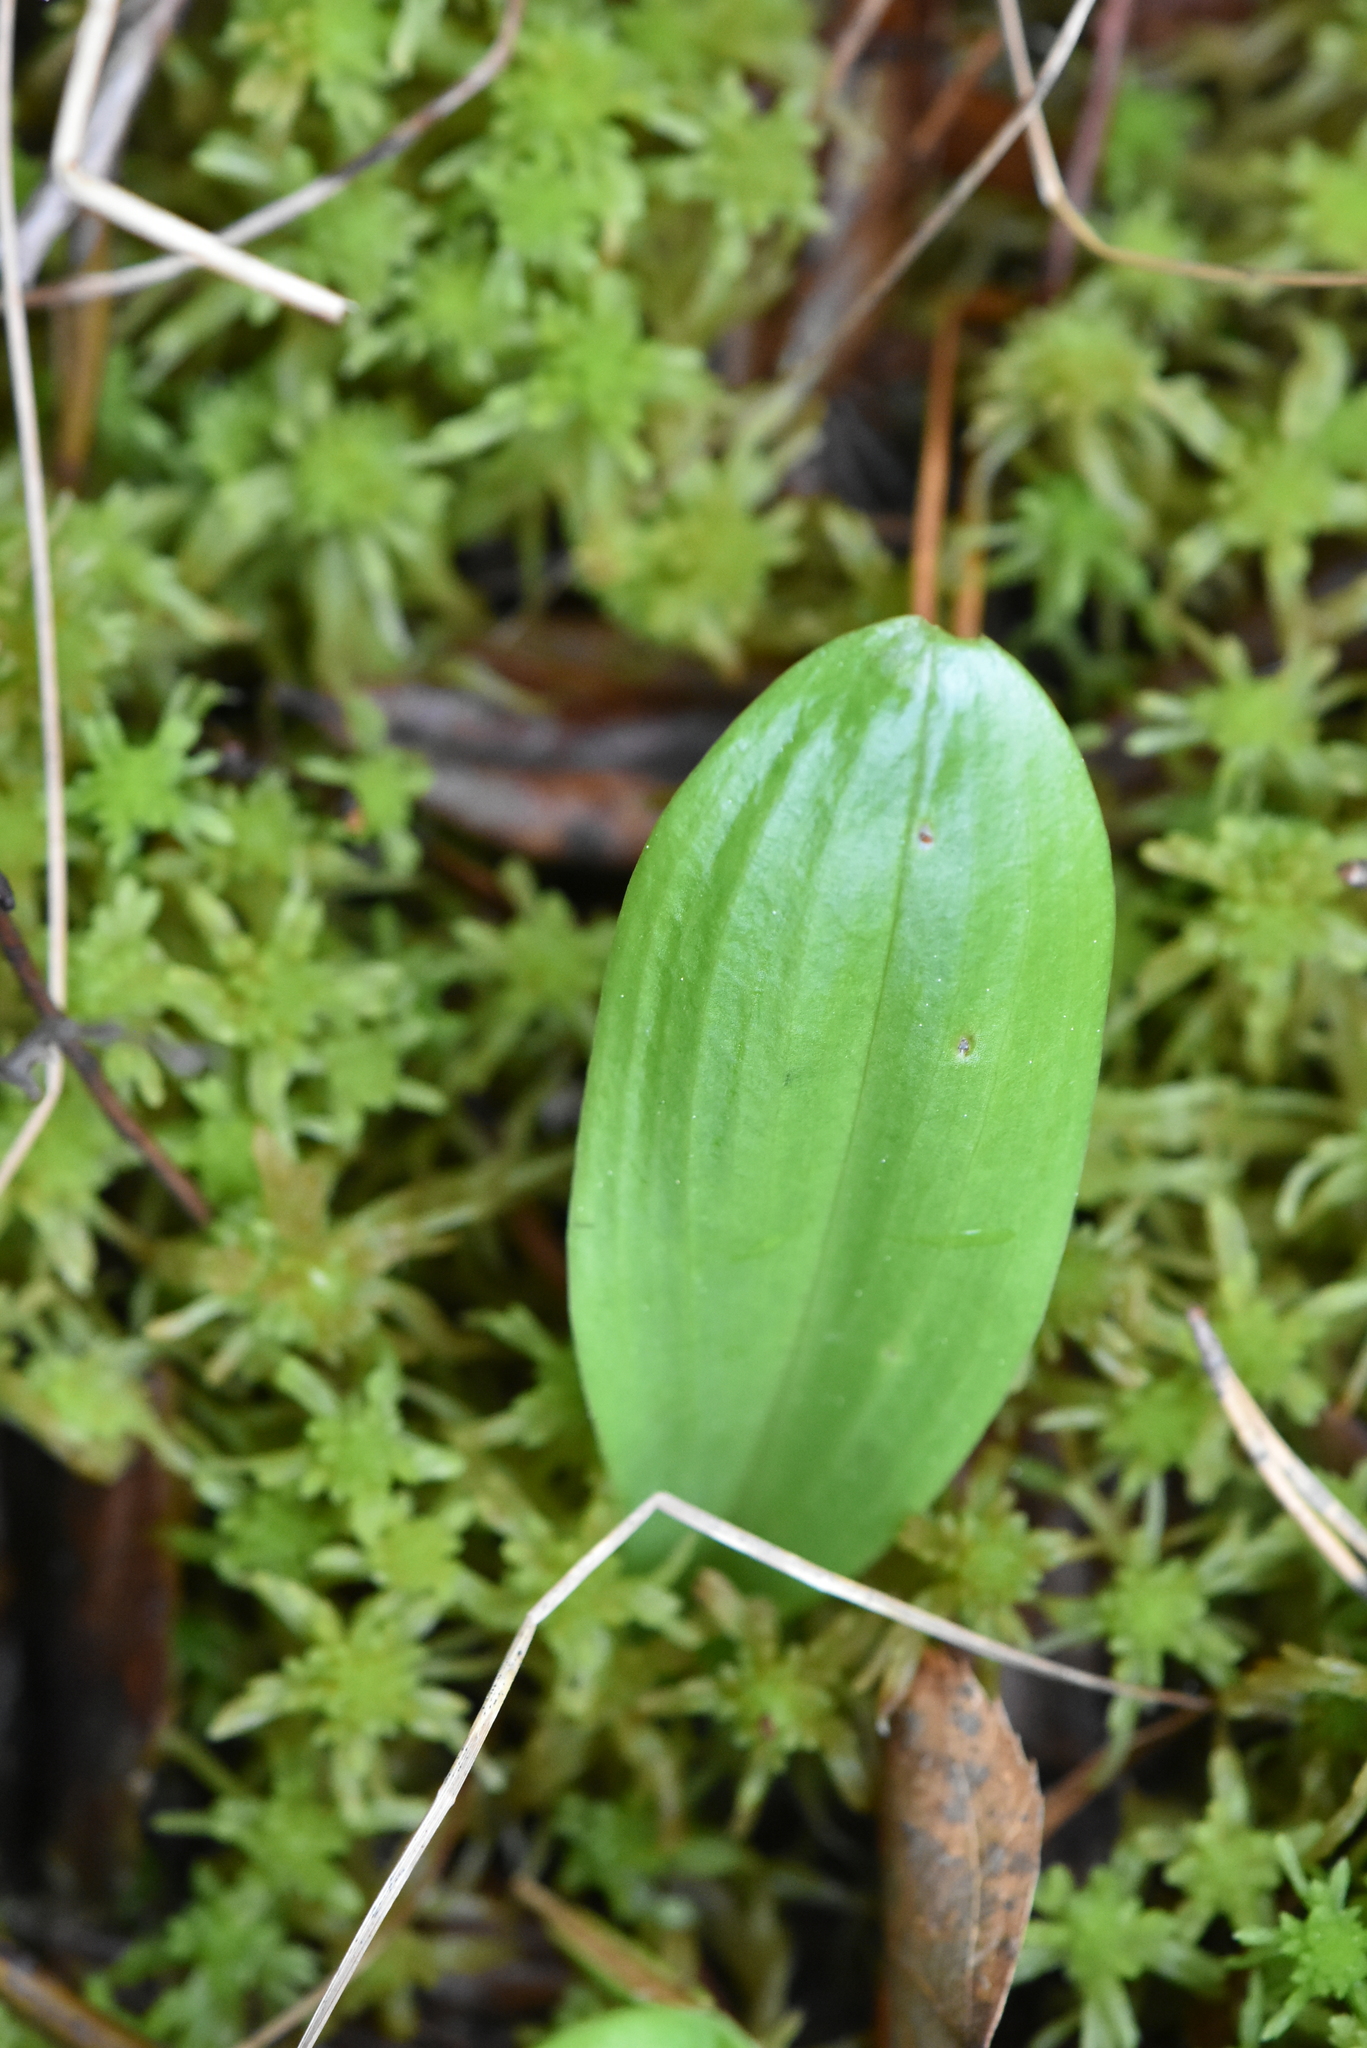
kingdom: Plantae
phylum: Tracheophyta
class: Liliopsida
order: Asparagales
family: Orchidaceae
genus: Platanthera
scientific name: Platanthera bifolia
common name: Lesser butterfly-orchid
